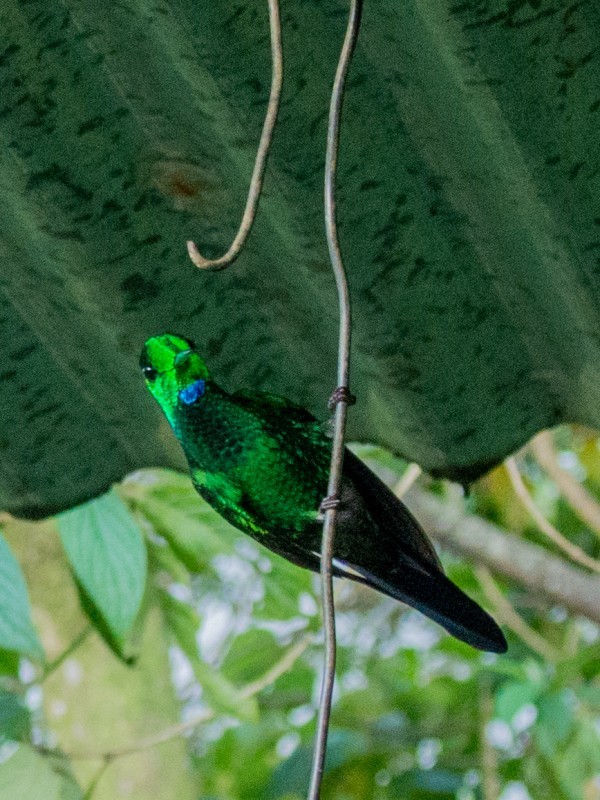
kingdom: Animalia
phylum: Chordata
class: Aves
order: Apodiformes
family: Trochilidae
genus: Heliodoxa
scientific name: Heliodoxa jacula
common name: Green-crowned brilliant
